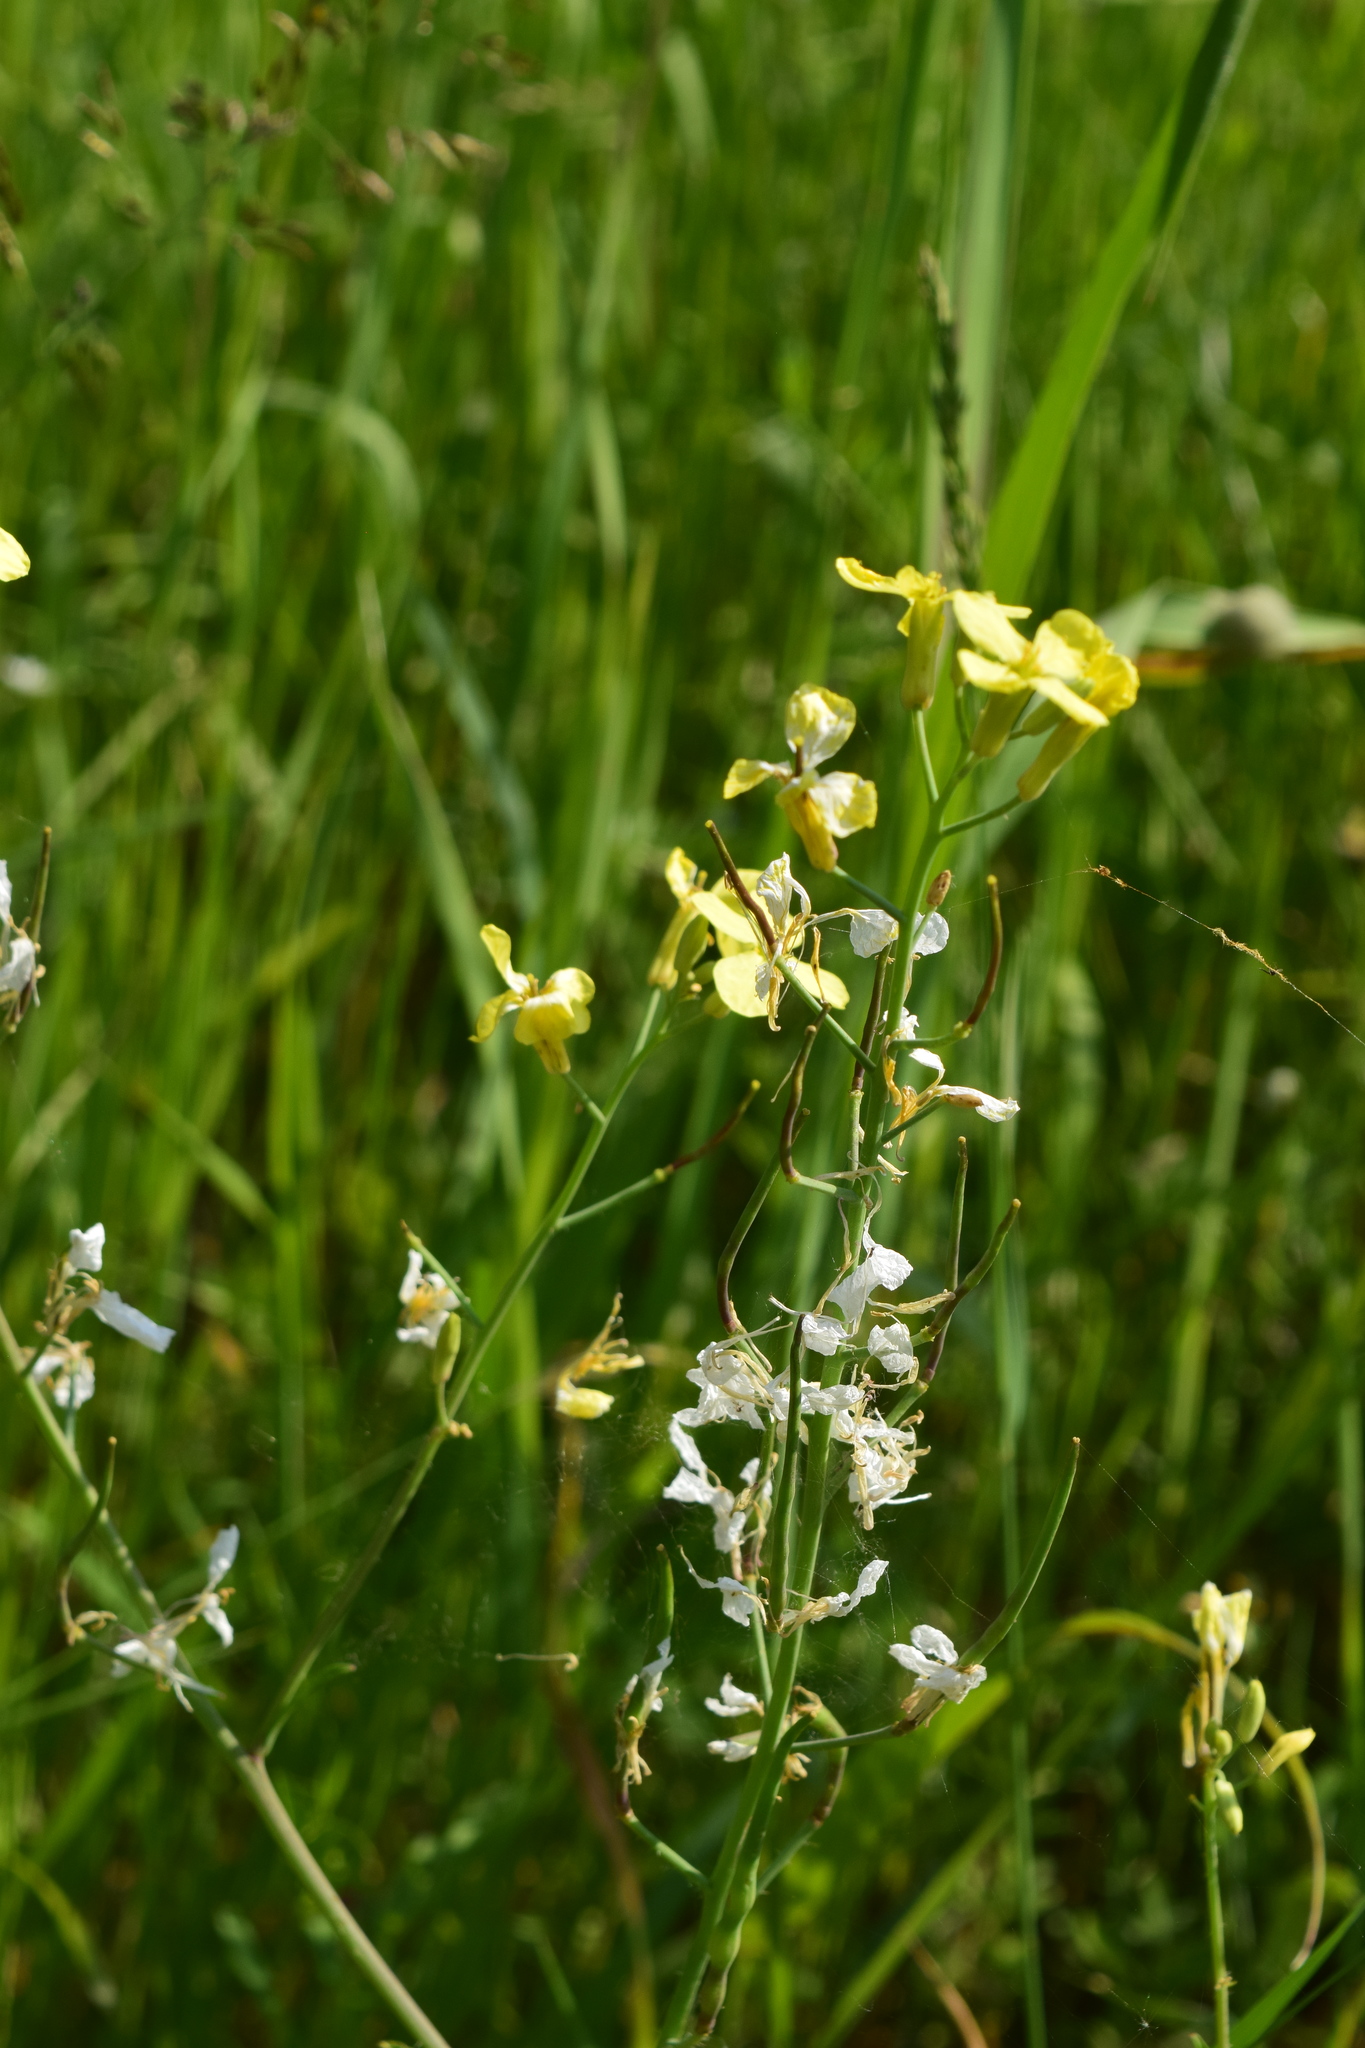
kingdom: Plantae
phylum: Tracheophyta
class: Magnoliopsida
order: Brassicales
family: Brassicaceae
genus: Raphanus
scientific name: Raphanus raphanistrum
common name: Wild radish
